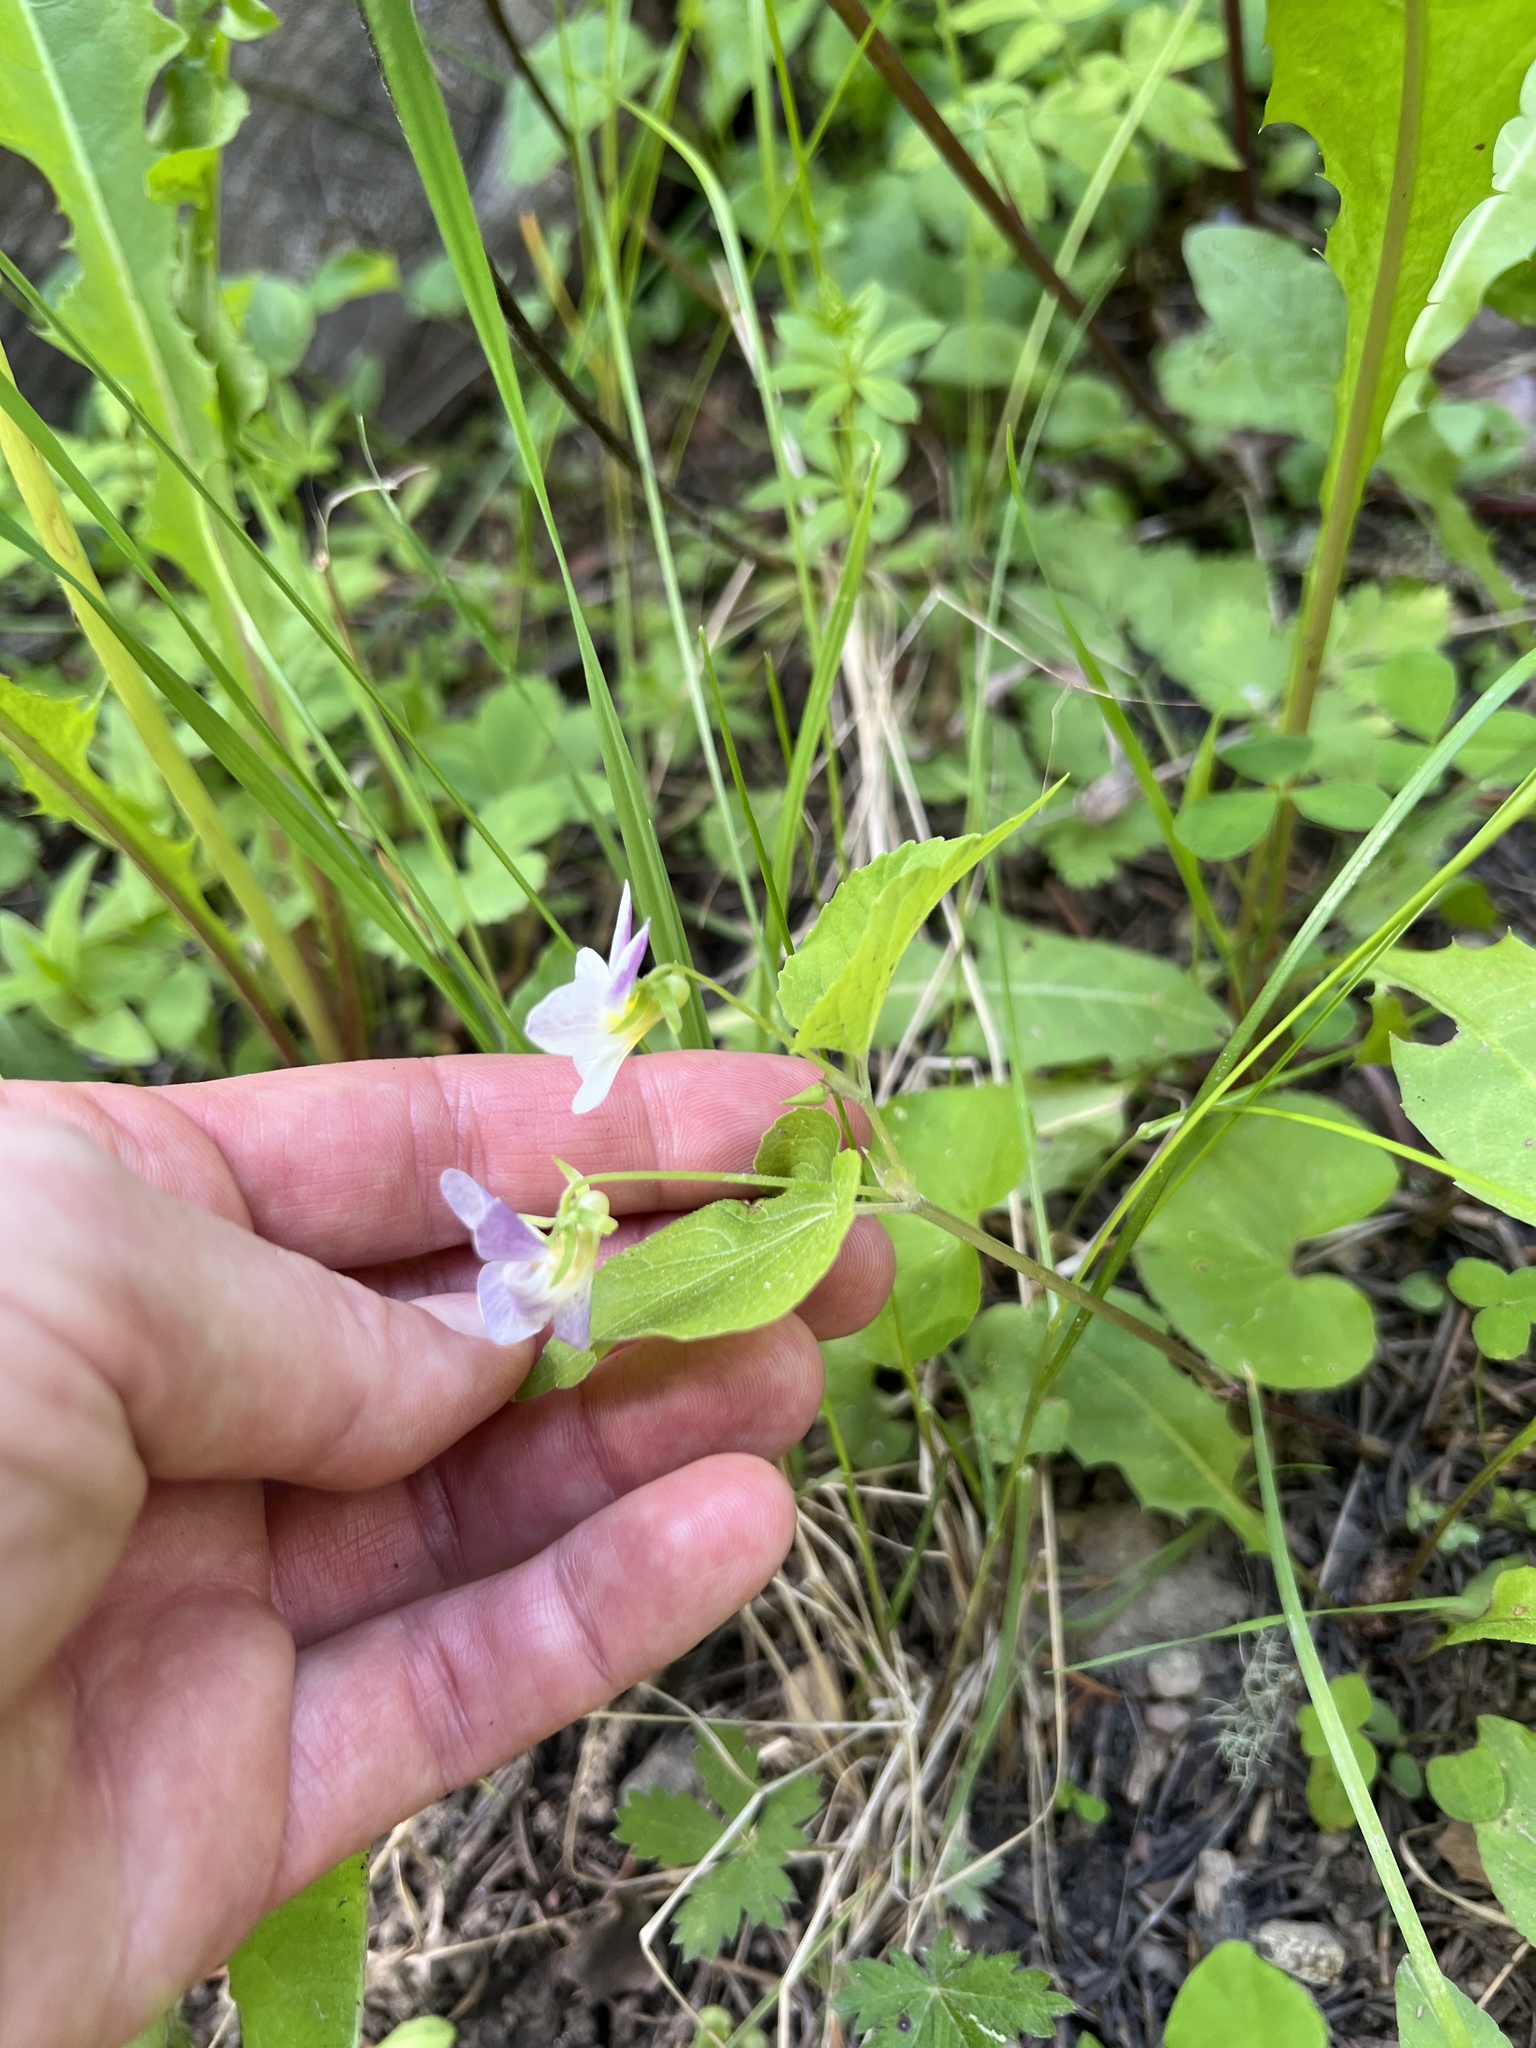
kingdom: Plantae
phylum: Tracheophyta
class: Magnoliopsida
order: Malpighiales
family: Violaceae
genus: Viola
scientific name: Viola canadensis
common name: Canada violet
